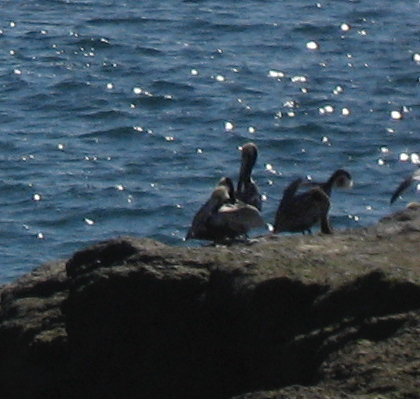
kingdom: Animalia
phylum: Chordata
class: Aves
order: Pelecaniformes
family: Pelecanidae
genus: Pelecanus
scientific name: Pelecanus occidentalis
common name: Brown pelican
